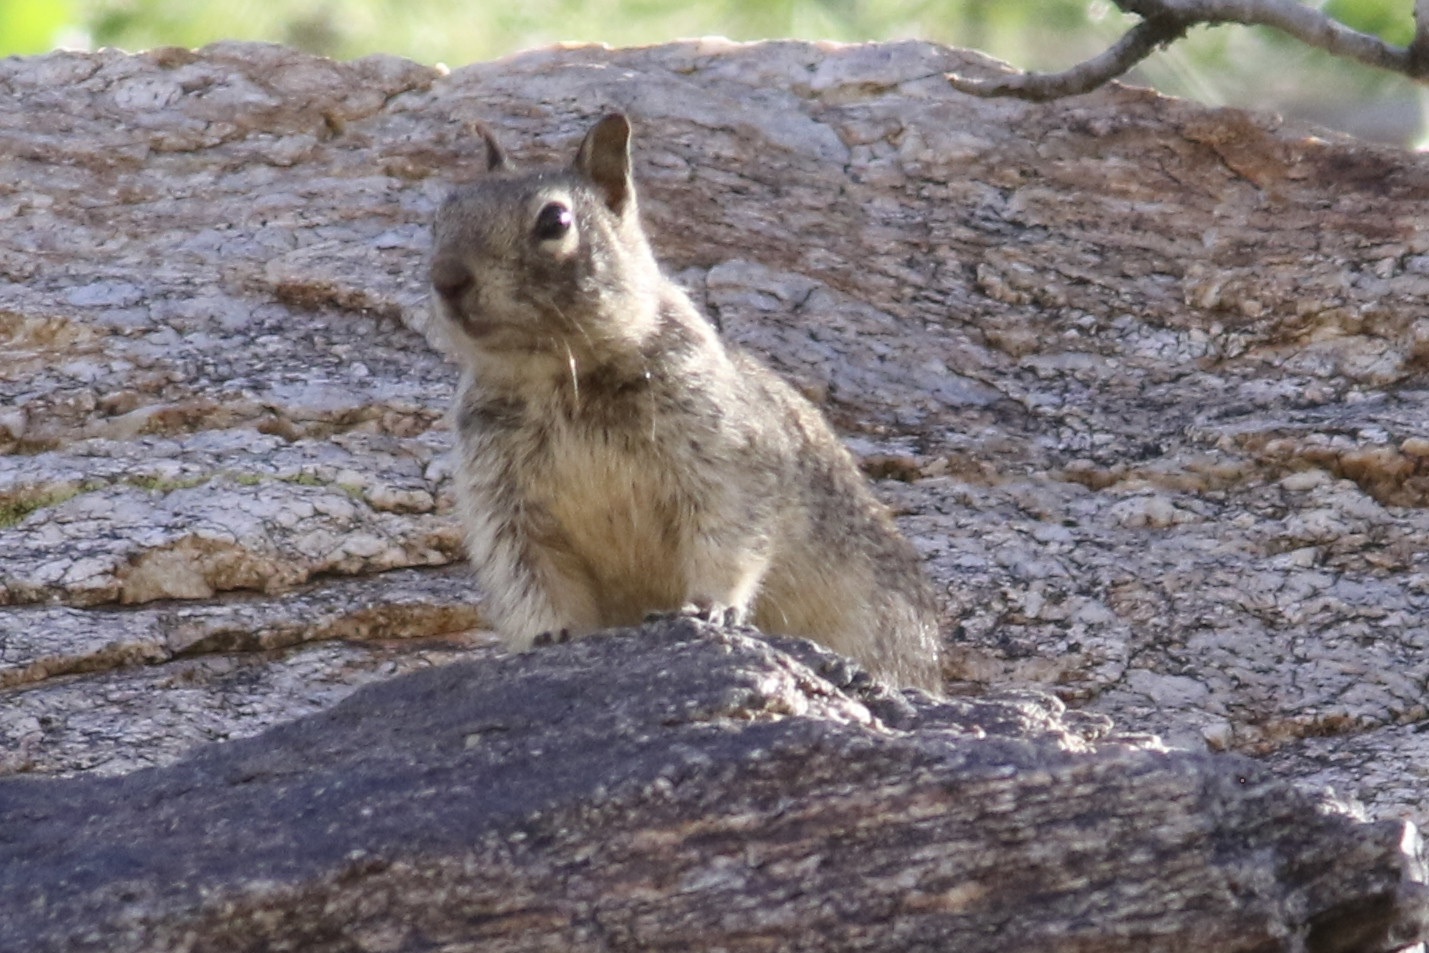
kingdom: Animalia
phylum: Chordata
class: Mammalia
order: Rodentia
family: Sciuridae
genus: Otospermophilus
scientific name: Otospermophilus beecheyi
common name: California ground squirrel
